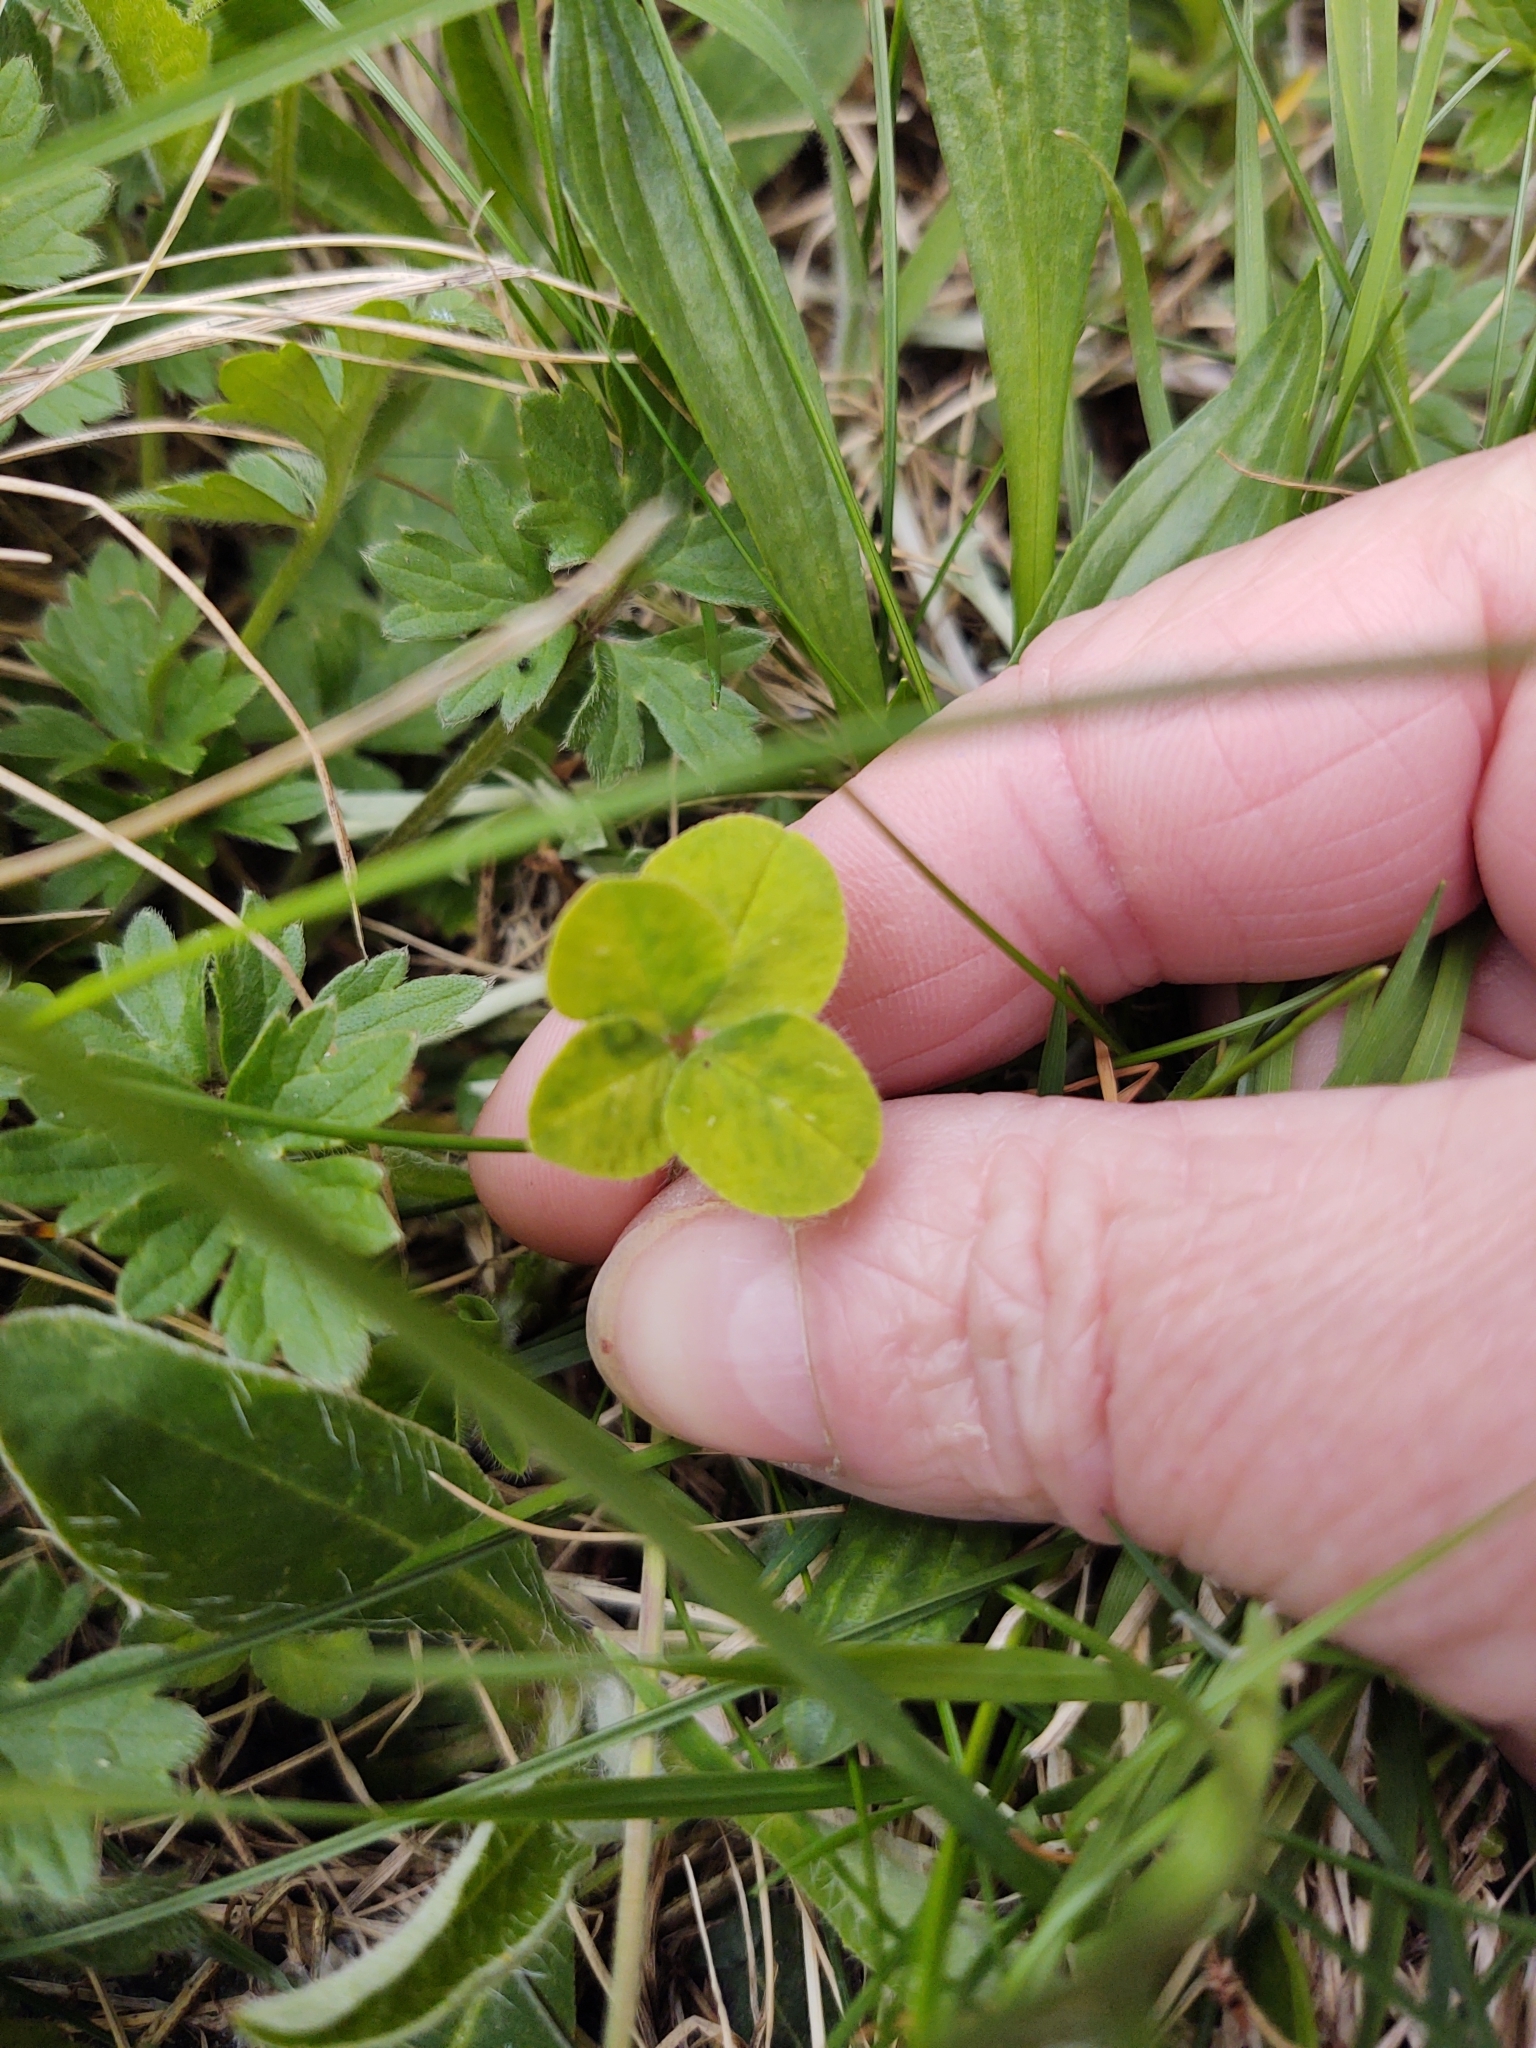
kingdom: Plantae
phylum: Tracheophyta
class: Magnoliopsida
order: Fabales
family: Fabaceae
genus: Trifolium
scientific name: Trifolium pratense
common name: Red clover
